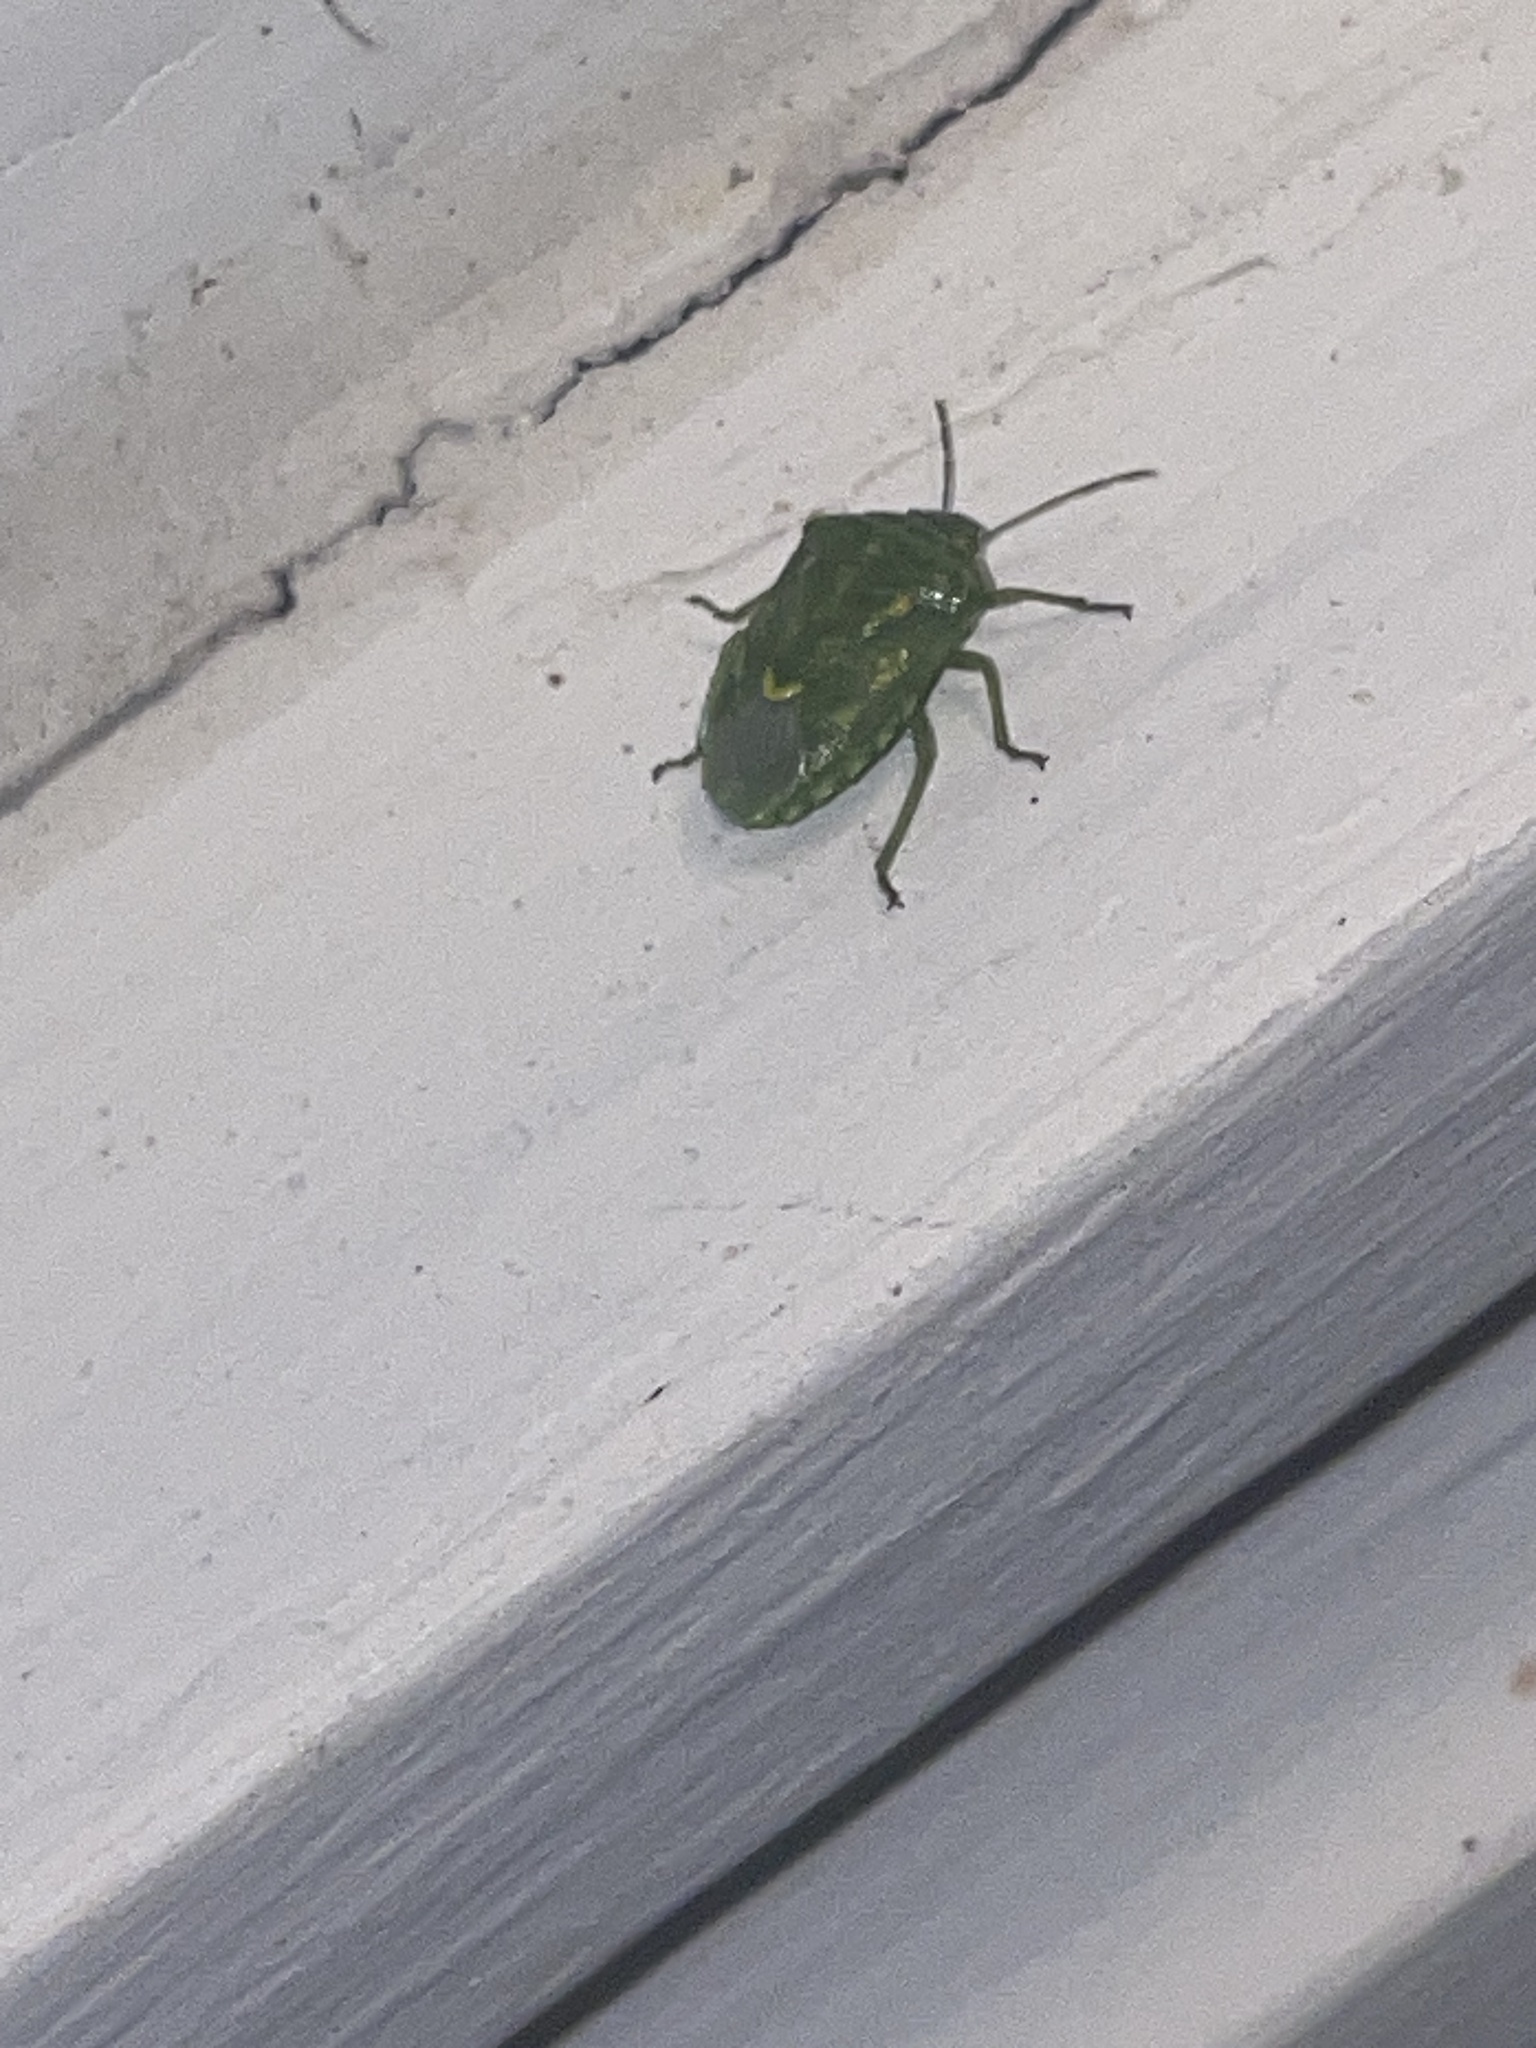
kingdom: Animalia
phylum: Arthropoda
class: Insecta
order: Hemiptera
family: Pentatomidae
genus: Banasa
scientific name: Banasa euchlora
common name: Cedar berry bug
